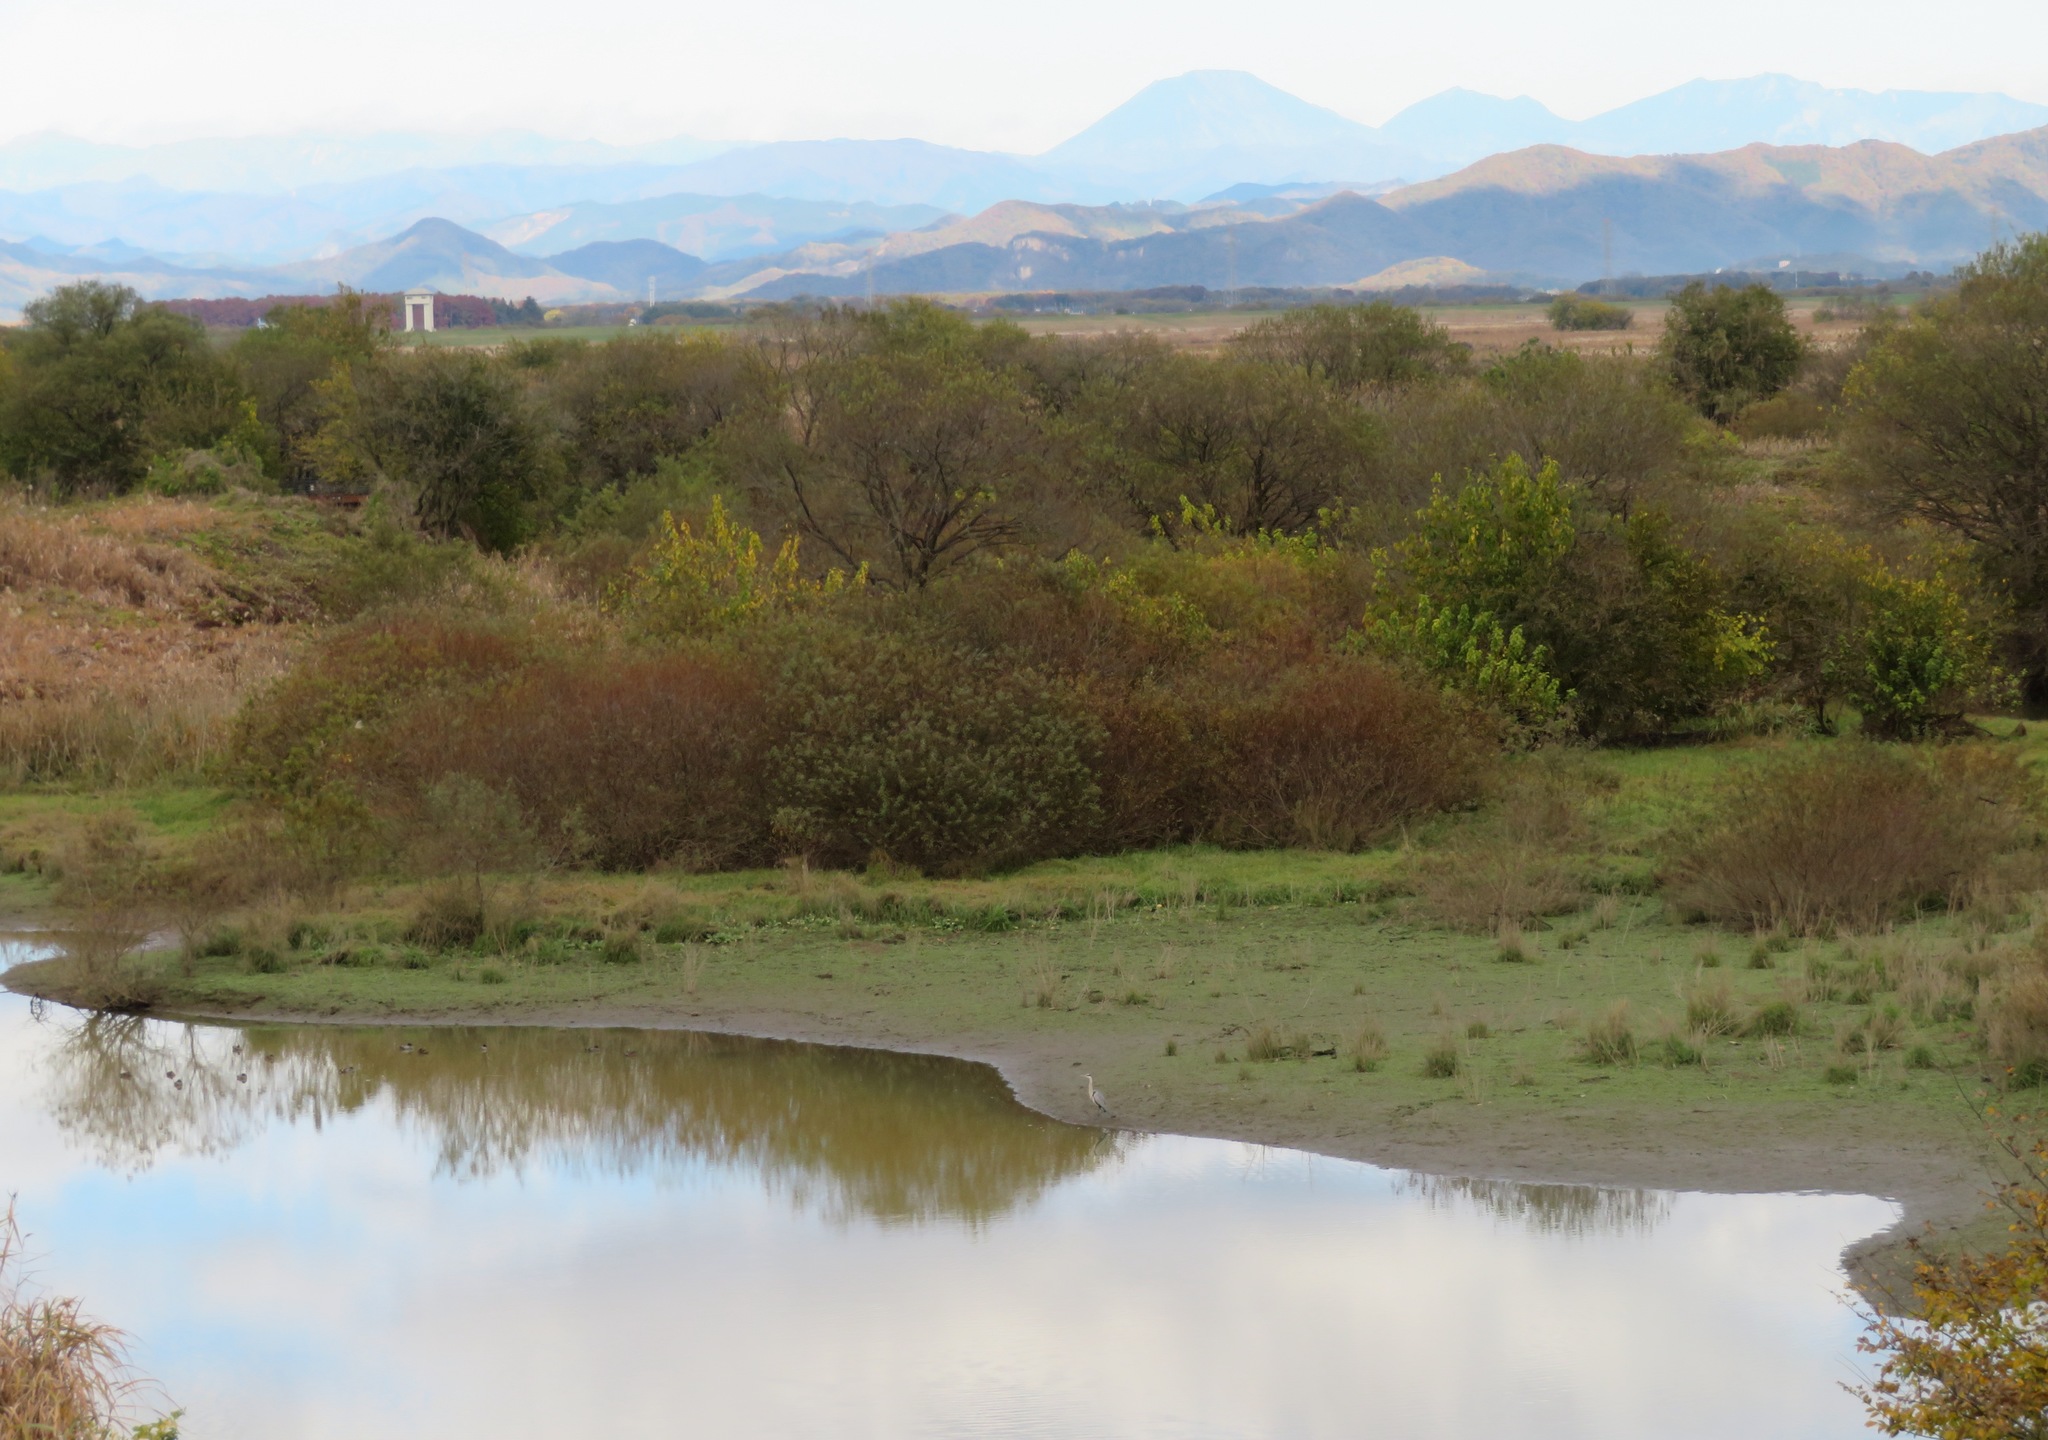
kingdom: Animalia
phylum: Chordata
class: Aves
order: Pelecaniformes
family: Ardeidae
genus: Ardea
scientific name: Ardea cinerea
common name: Grey heron
